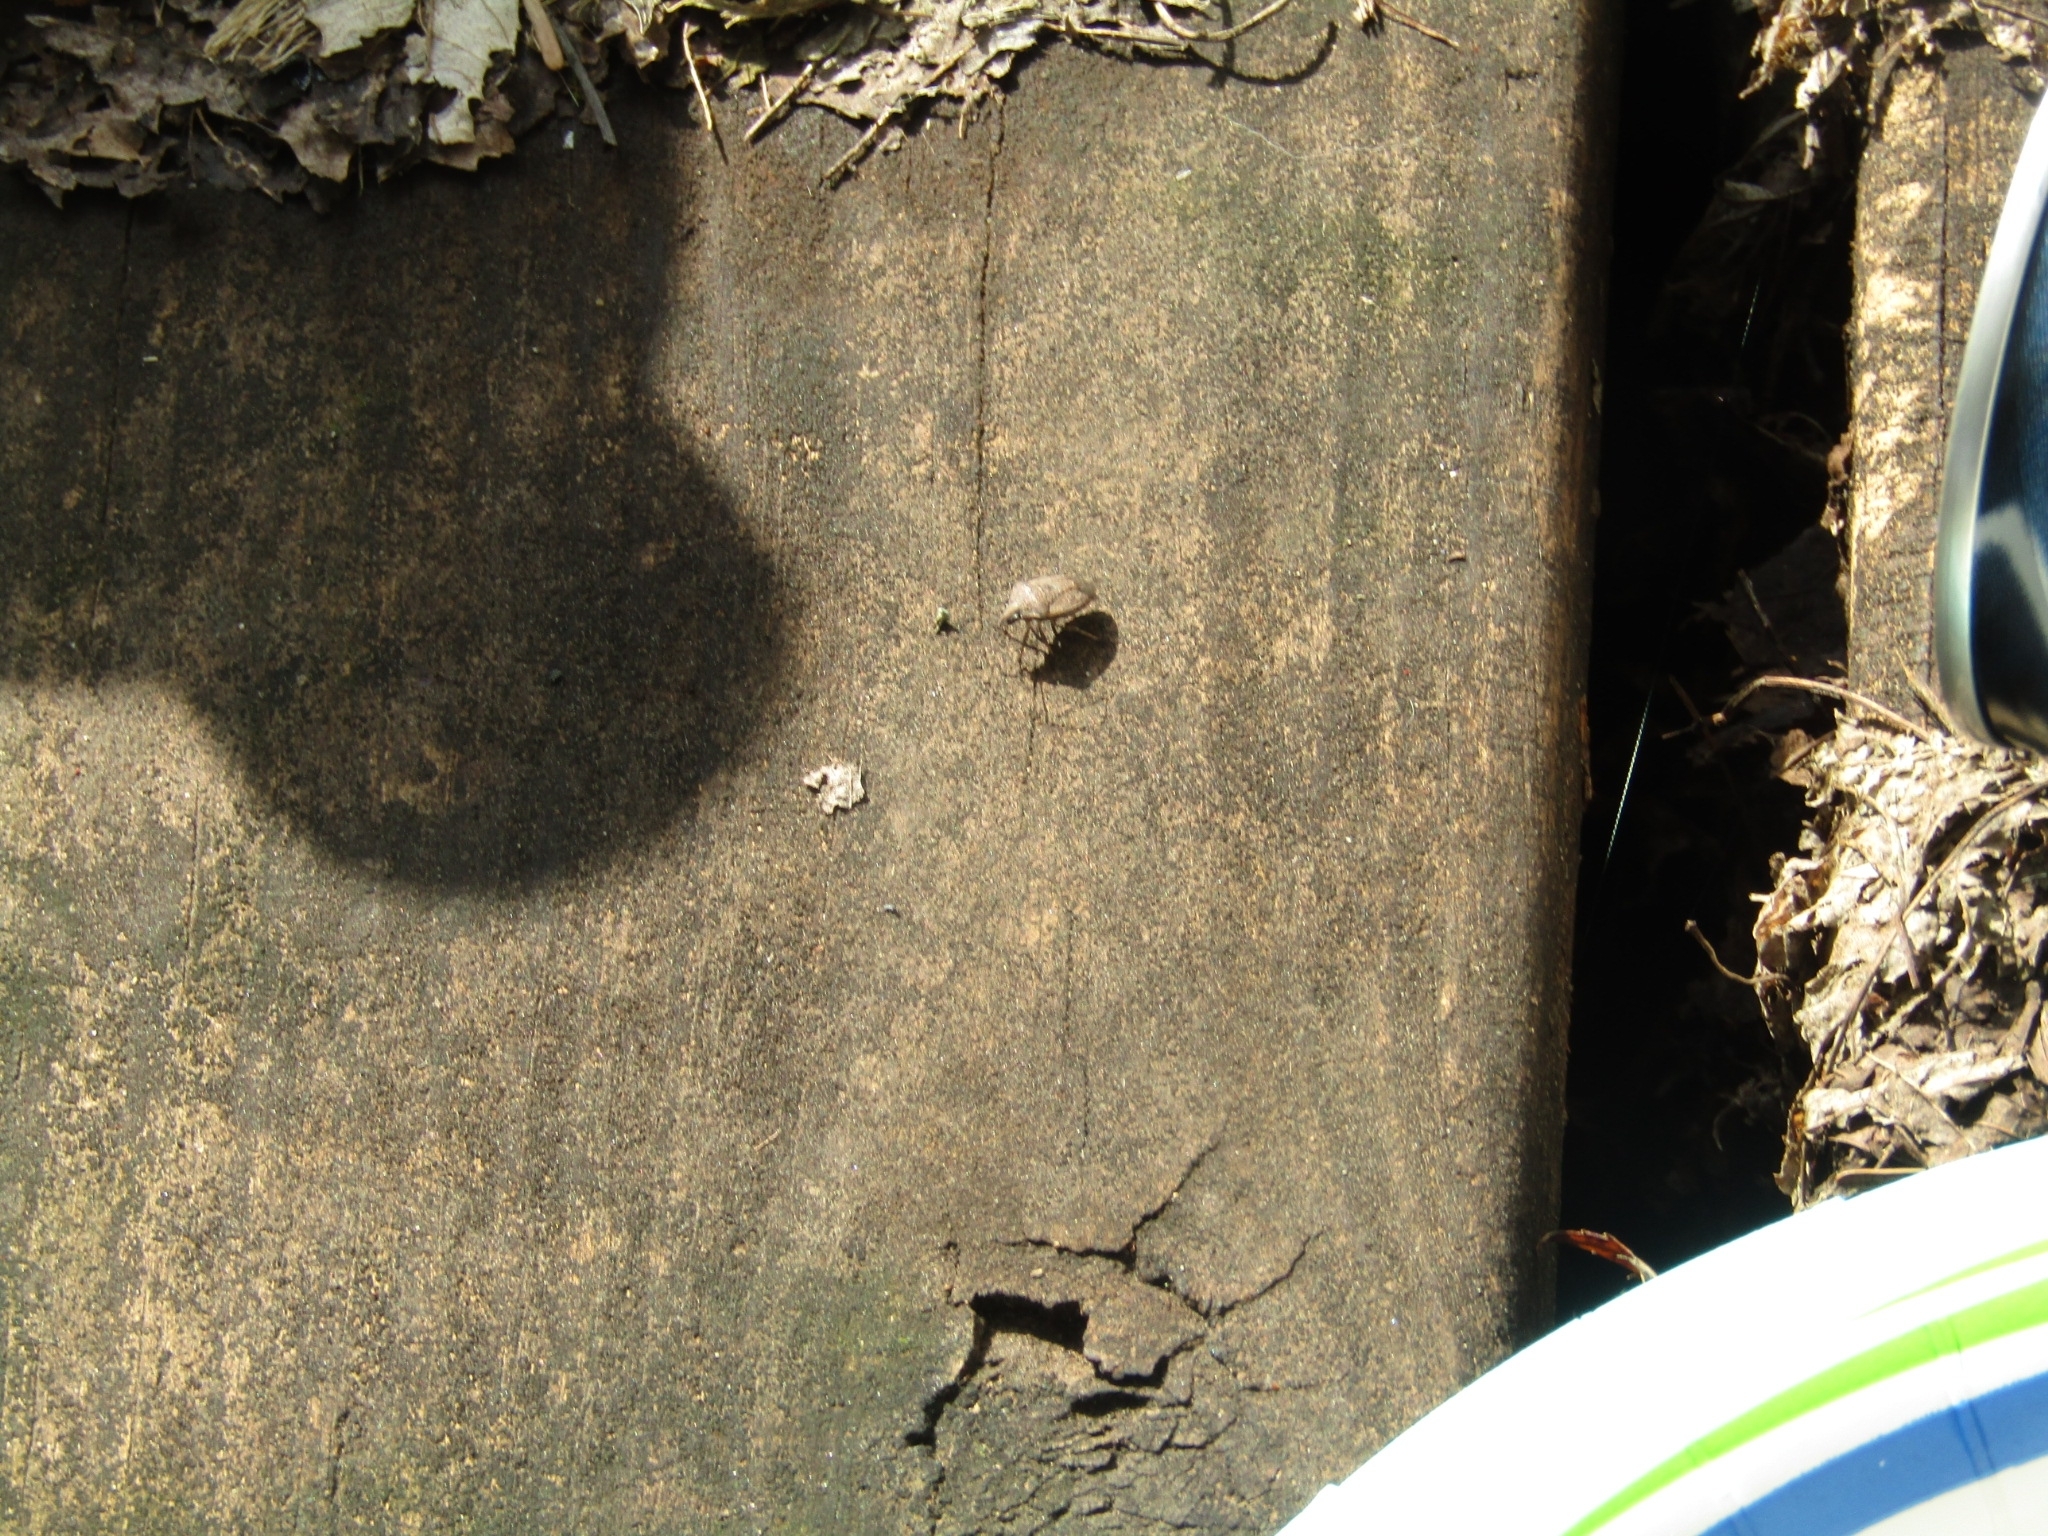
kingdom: Animalia
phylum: Arthropoda
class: Insecta
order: Hemiptera
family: Pentatomidae
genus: Mcphersonarcys
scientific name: Mcphersonarcys
